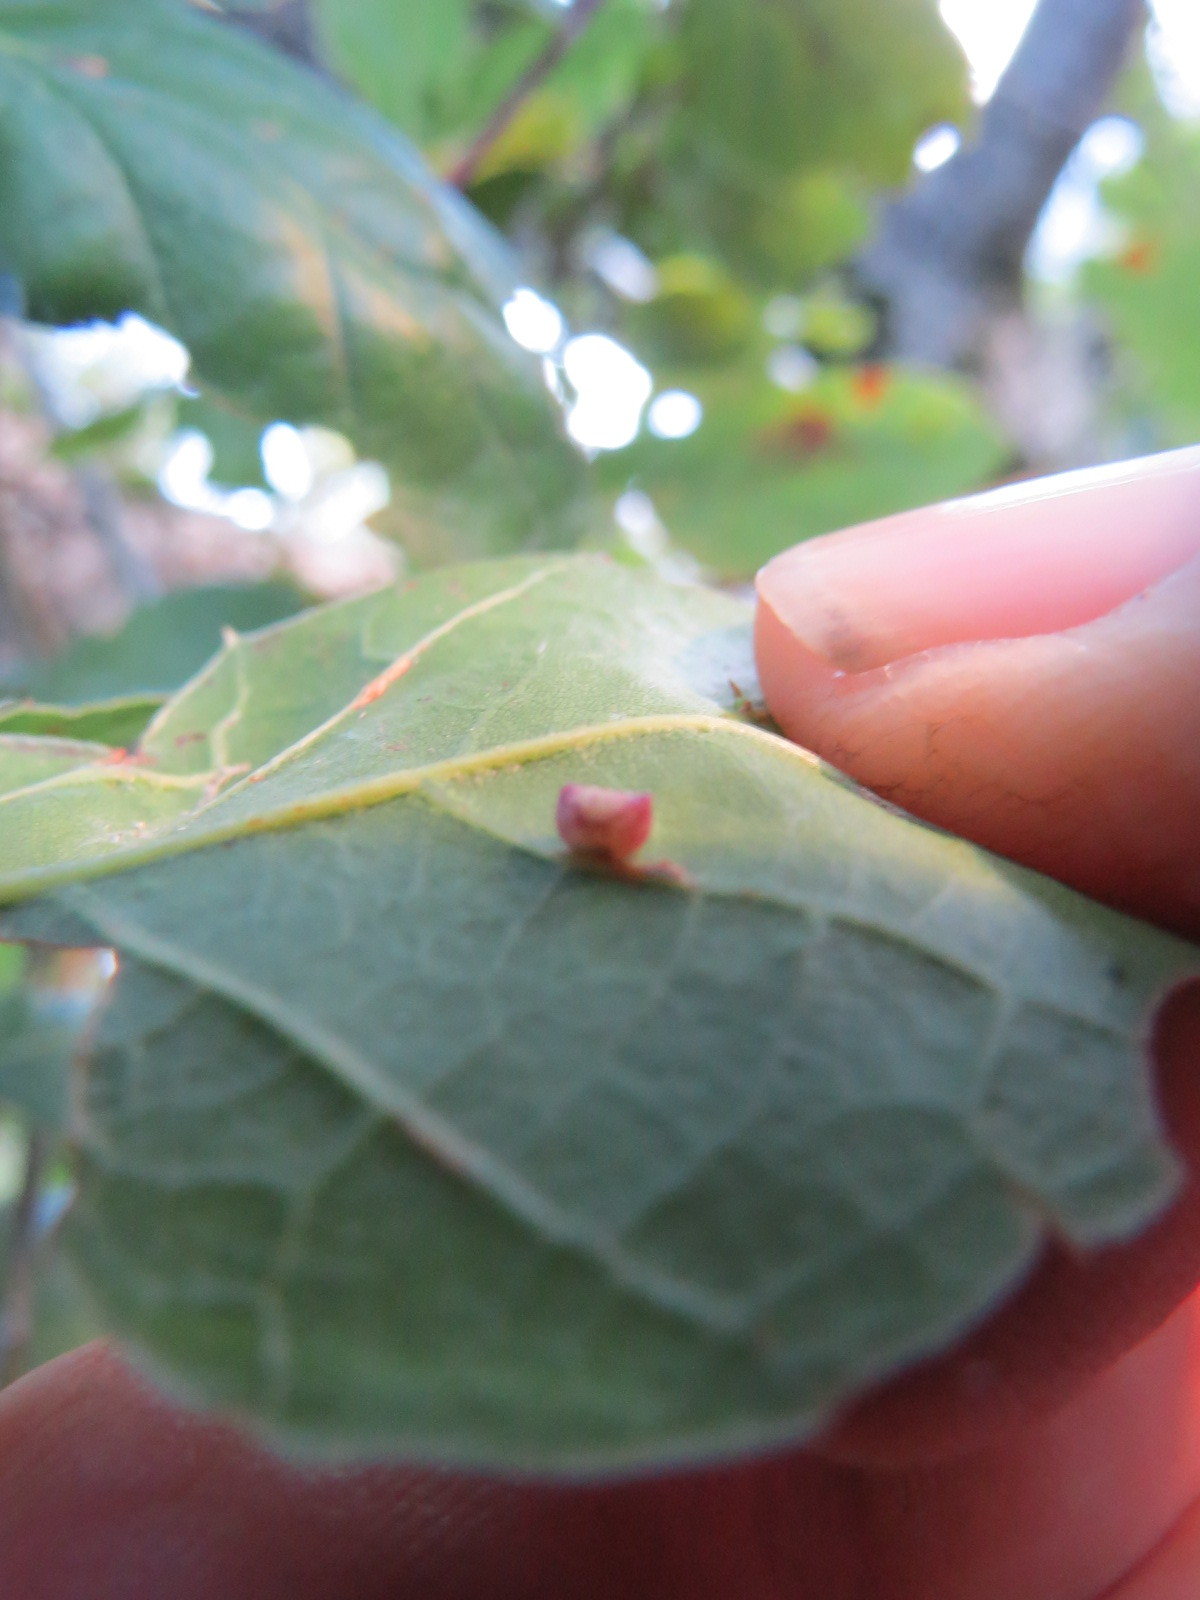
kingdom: Animalia
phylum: Arthropoda
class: Insecta
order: Hymenoptera
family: Cynipidae
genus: Dryocosmus
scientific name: Dryocosmus
